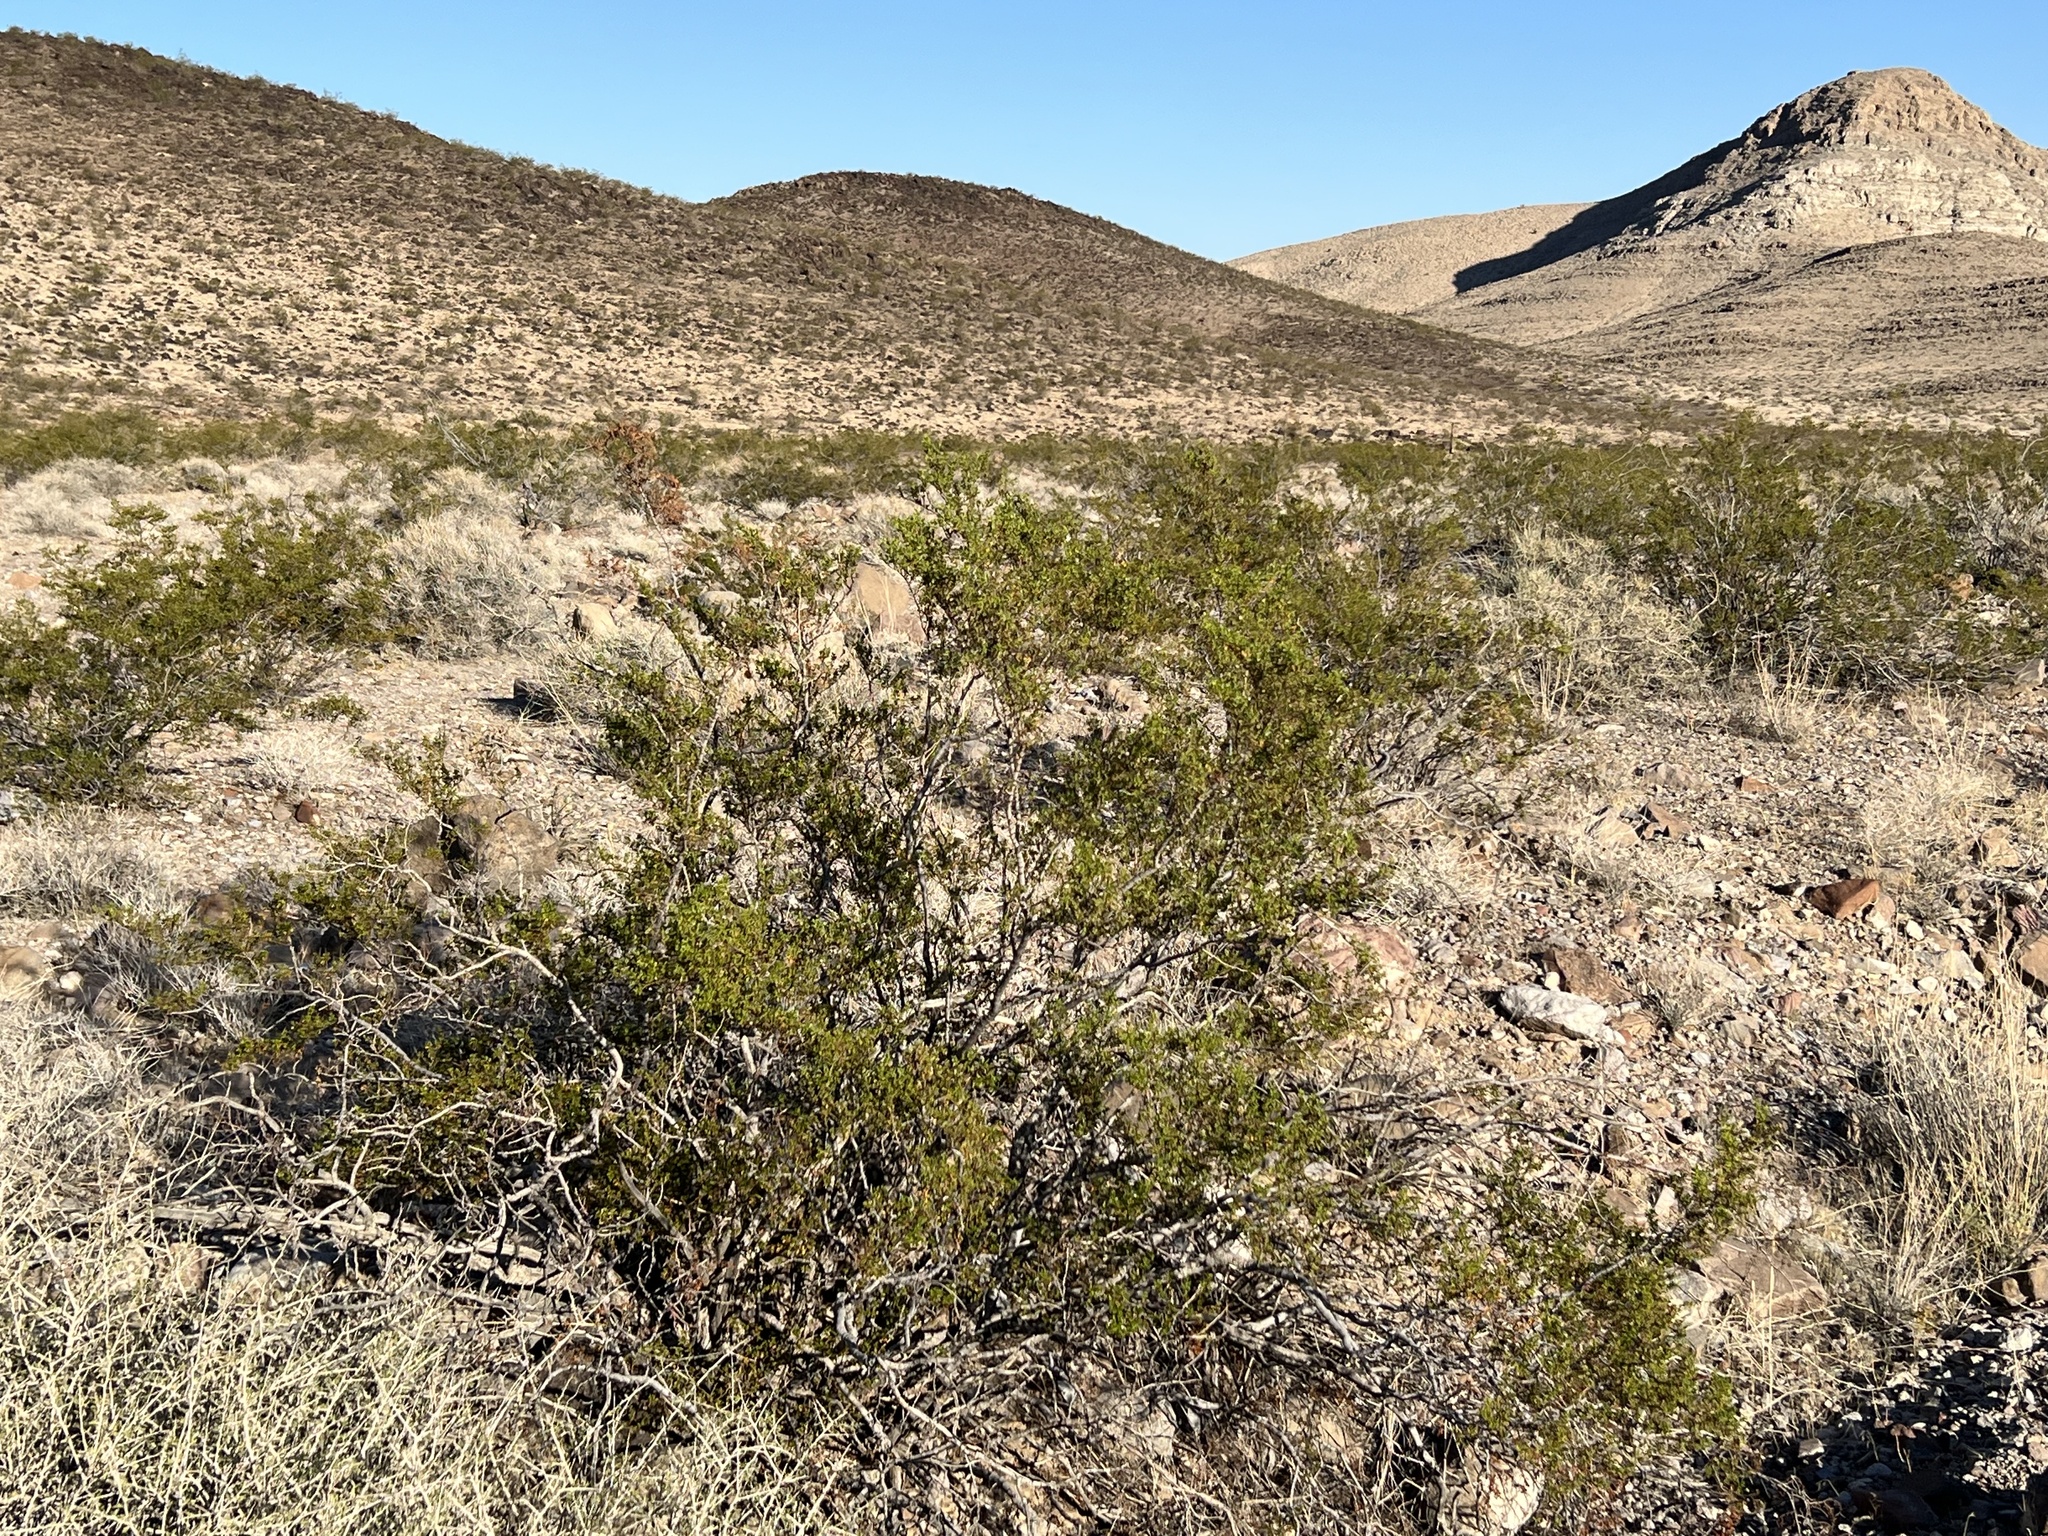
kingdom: Plantae
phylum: Tracheophyta
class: Magnoliopsida
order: Zygophyllales
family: Zygophyllaceae
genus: Larrea
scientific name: Larrea tridentata
